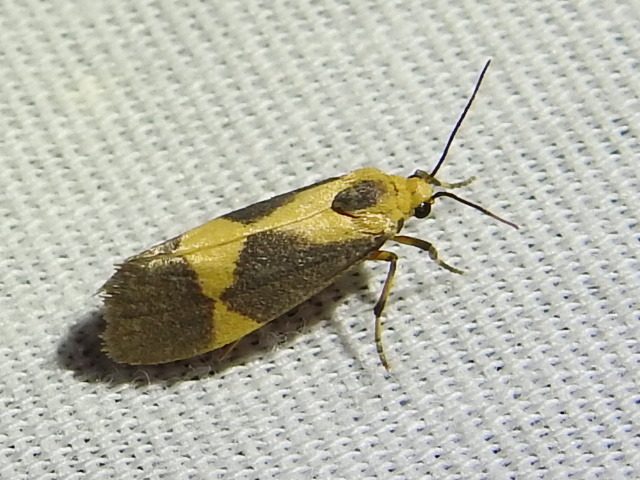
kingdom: Animalia
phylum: Arthropoda
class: Insecta
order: Lepidoptera
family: Erebidae
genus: Cisthene
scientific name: Cisthene unifascia
